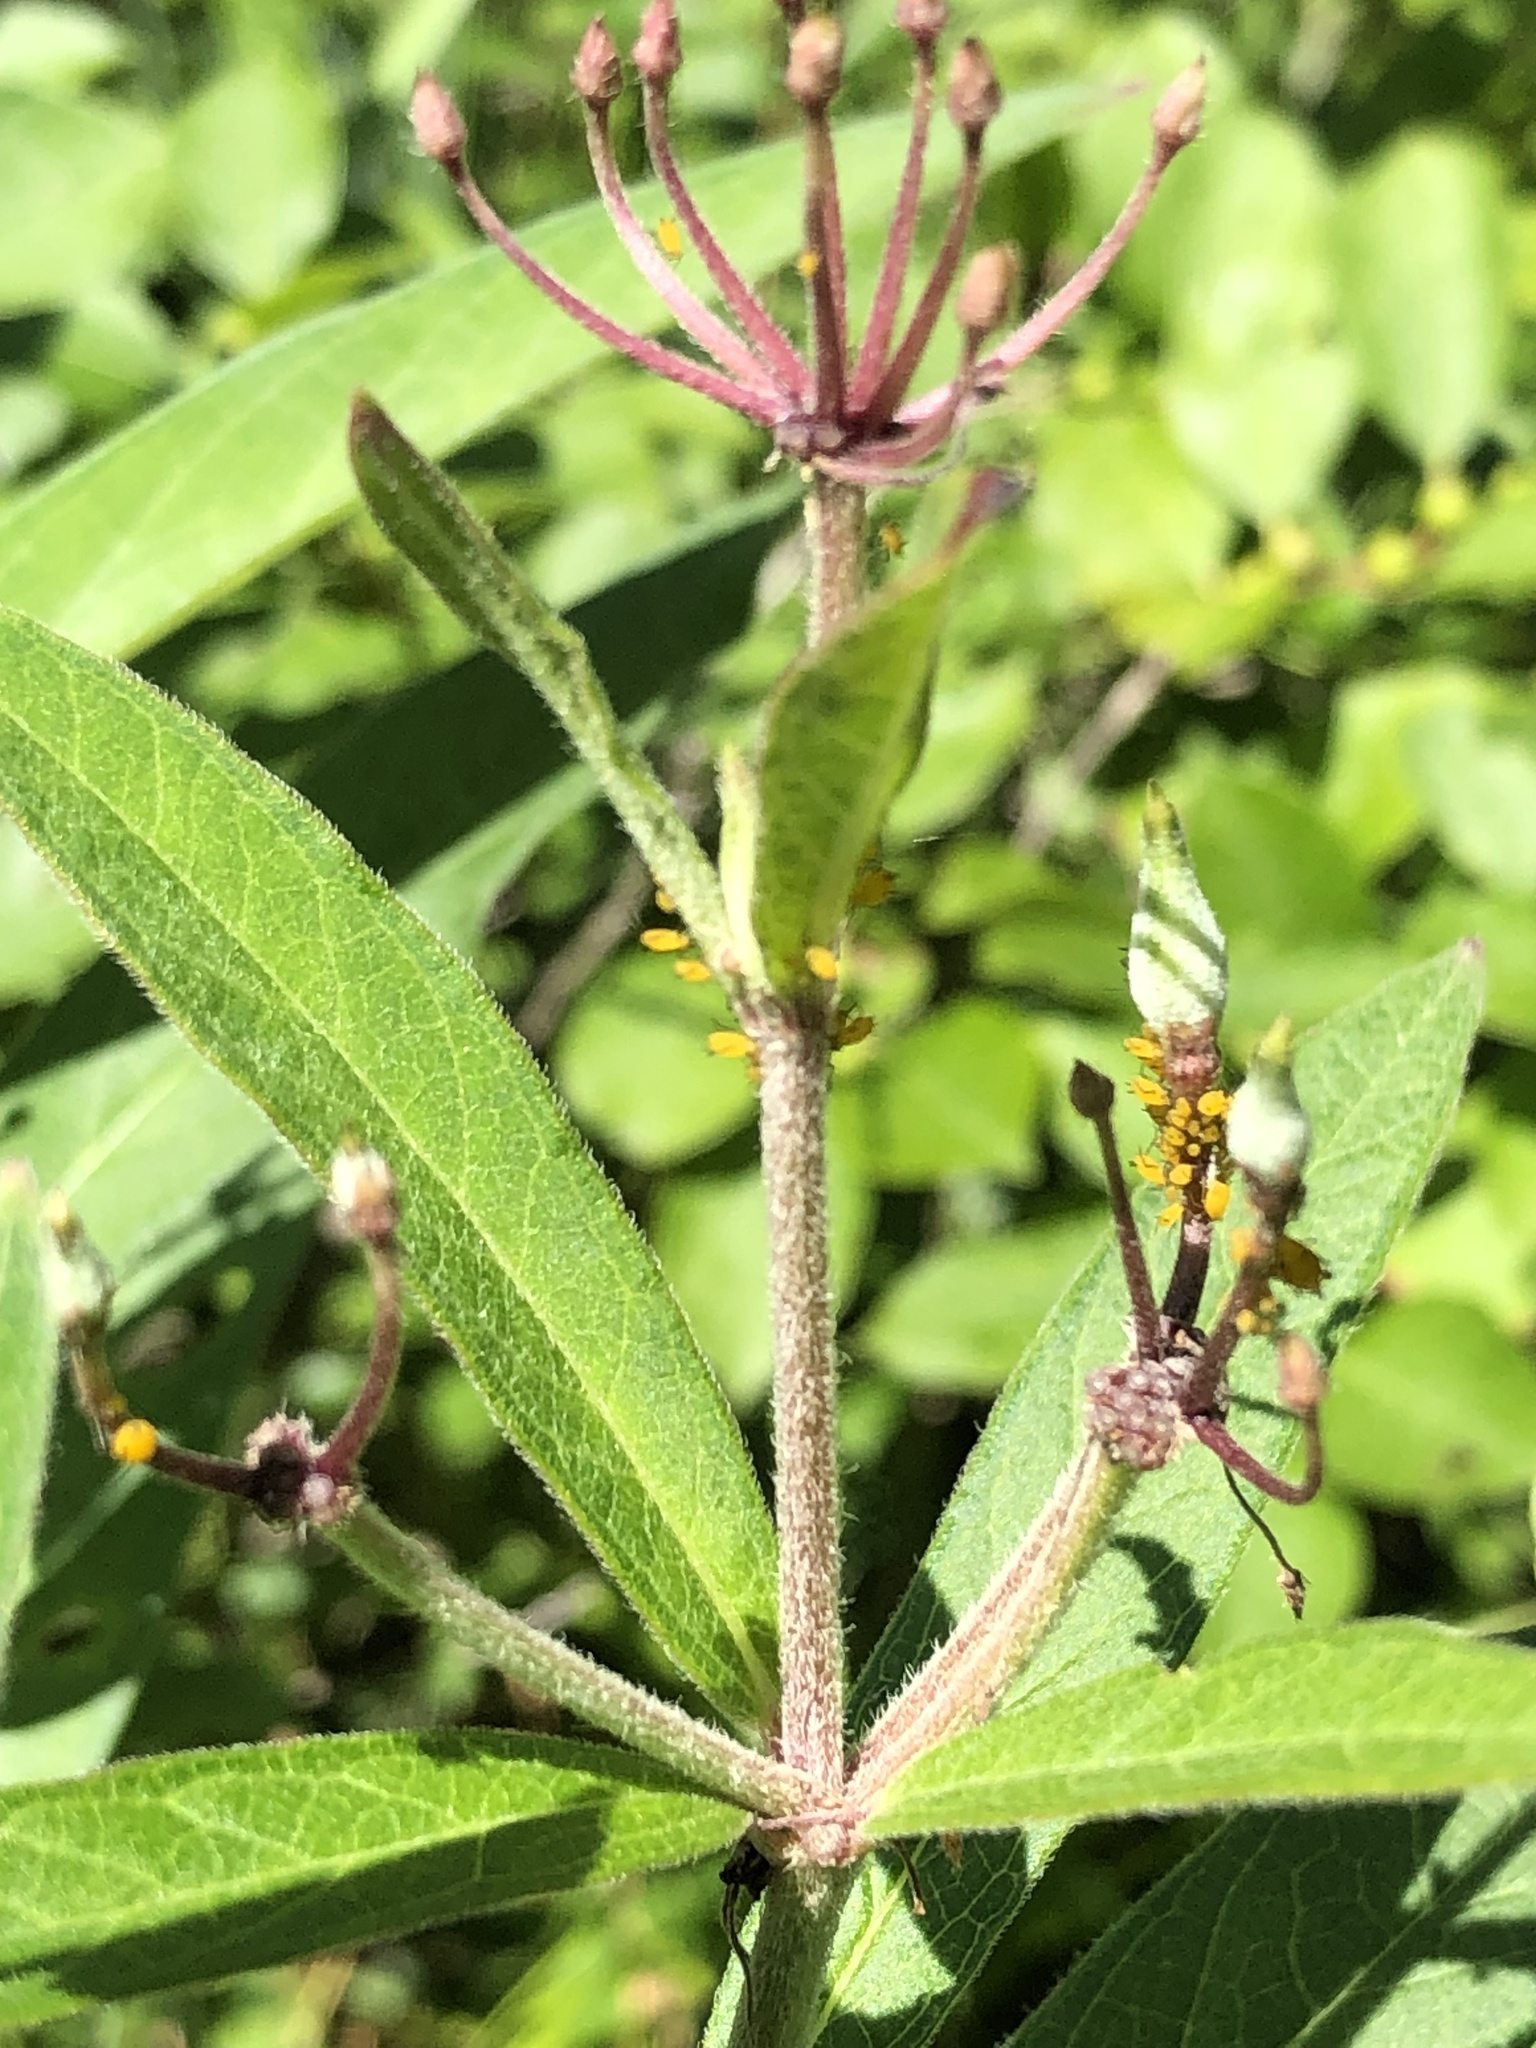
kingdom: Animalia
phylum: Arthropoda
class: Insecta
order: Hemiptera
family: Aphididae
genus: Aphis
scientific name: Aphis nerii
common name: Oleander aphid
